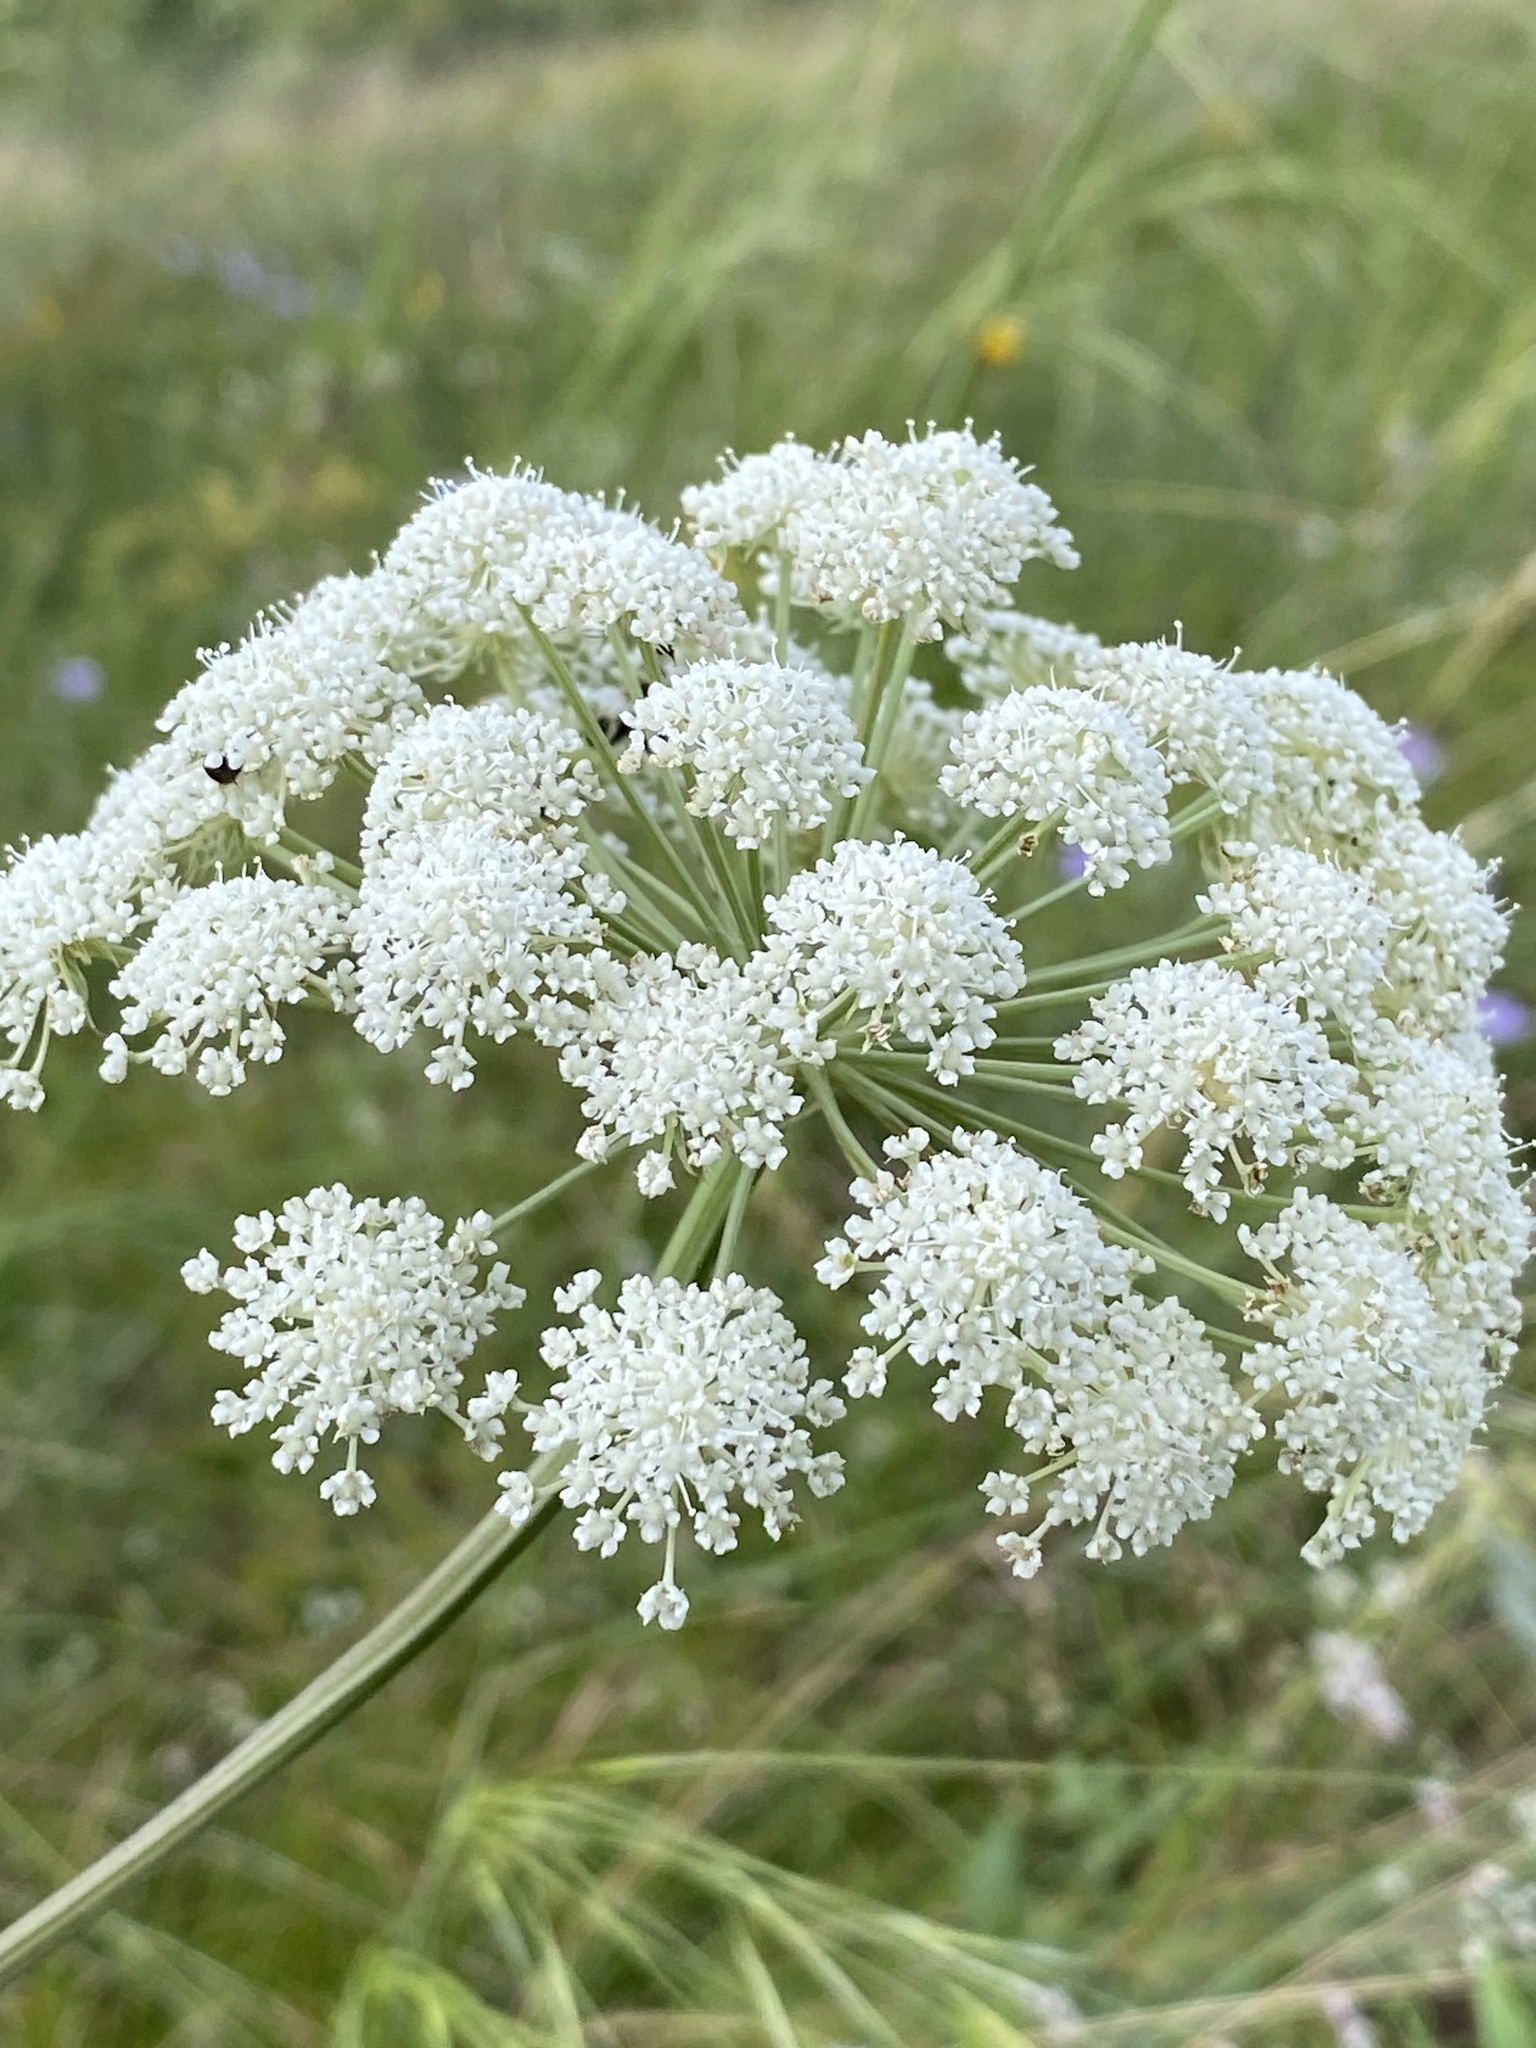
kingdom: Plantae
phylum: Tracheophyta
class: Magnoliopsida
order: Apiales
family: Apiaceae
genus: Seseli
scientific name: Seseli libanotis
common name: Mooncarrot
